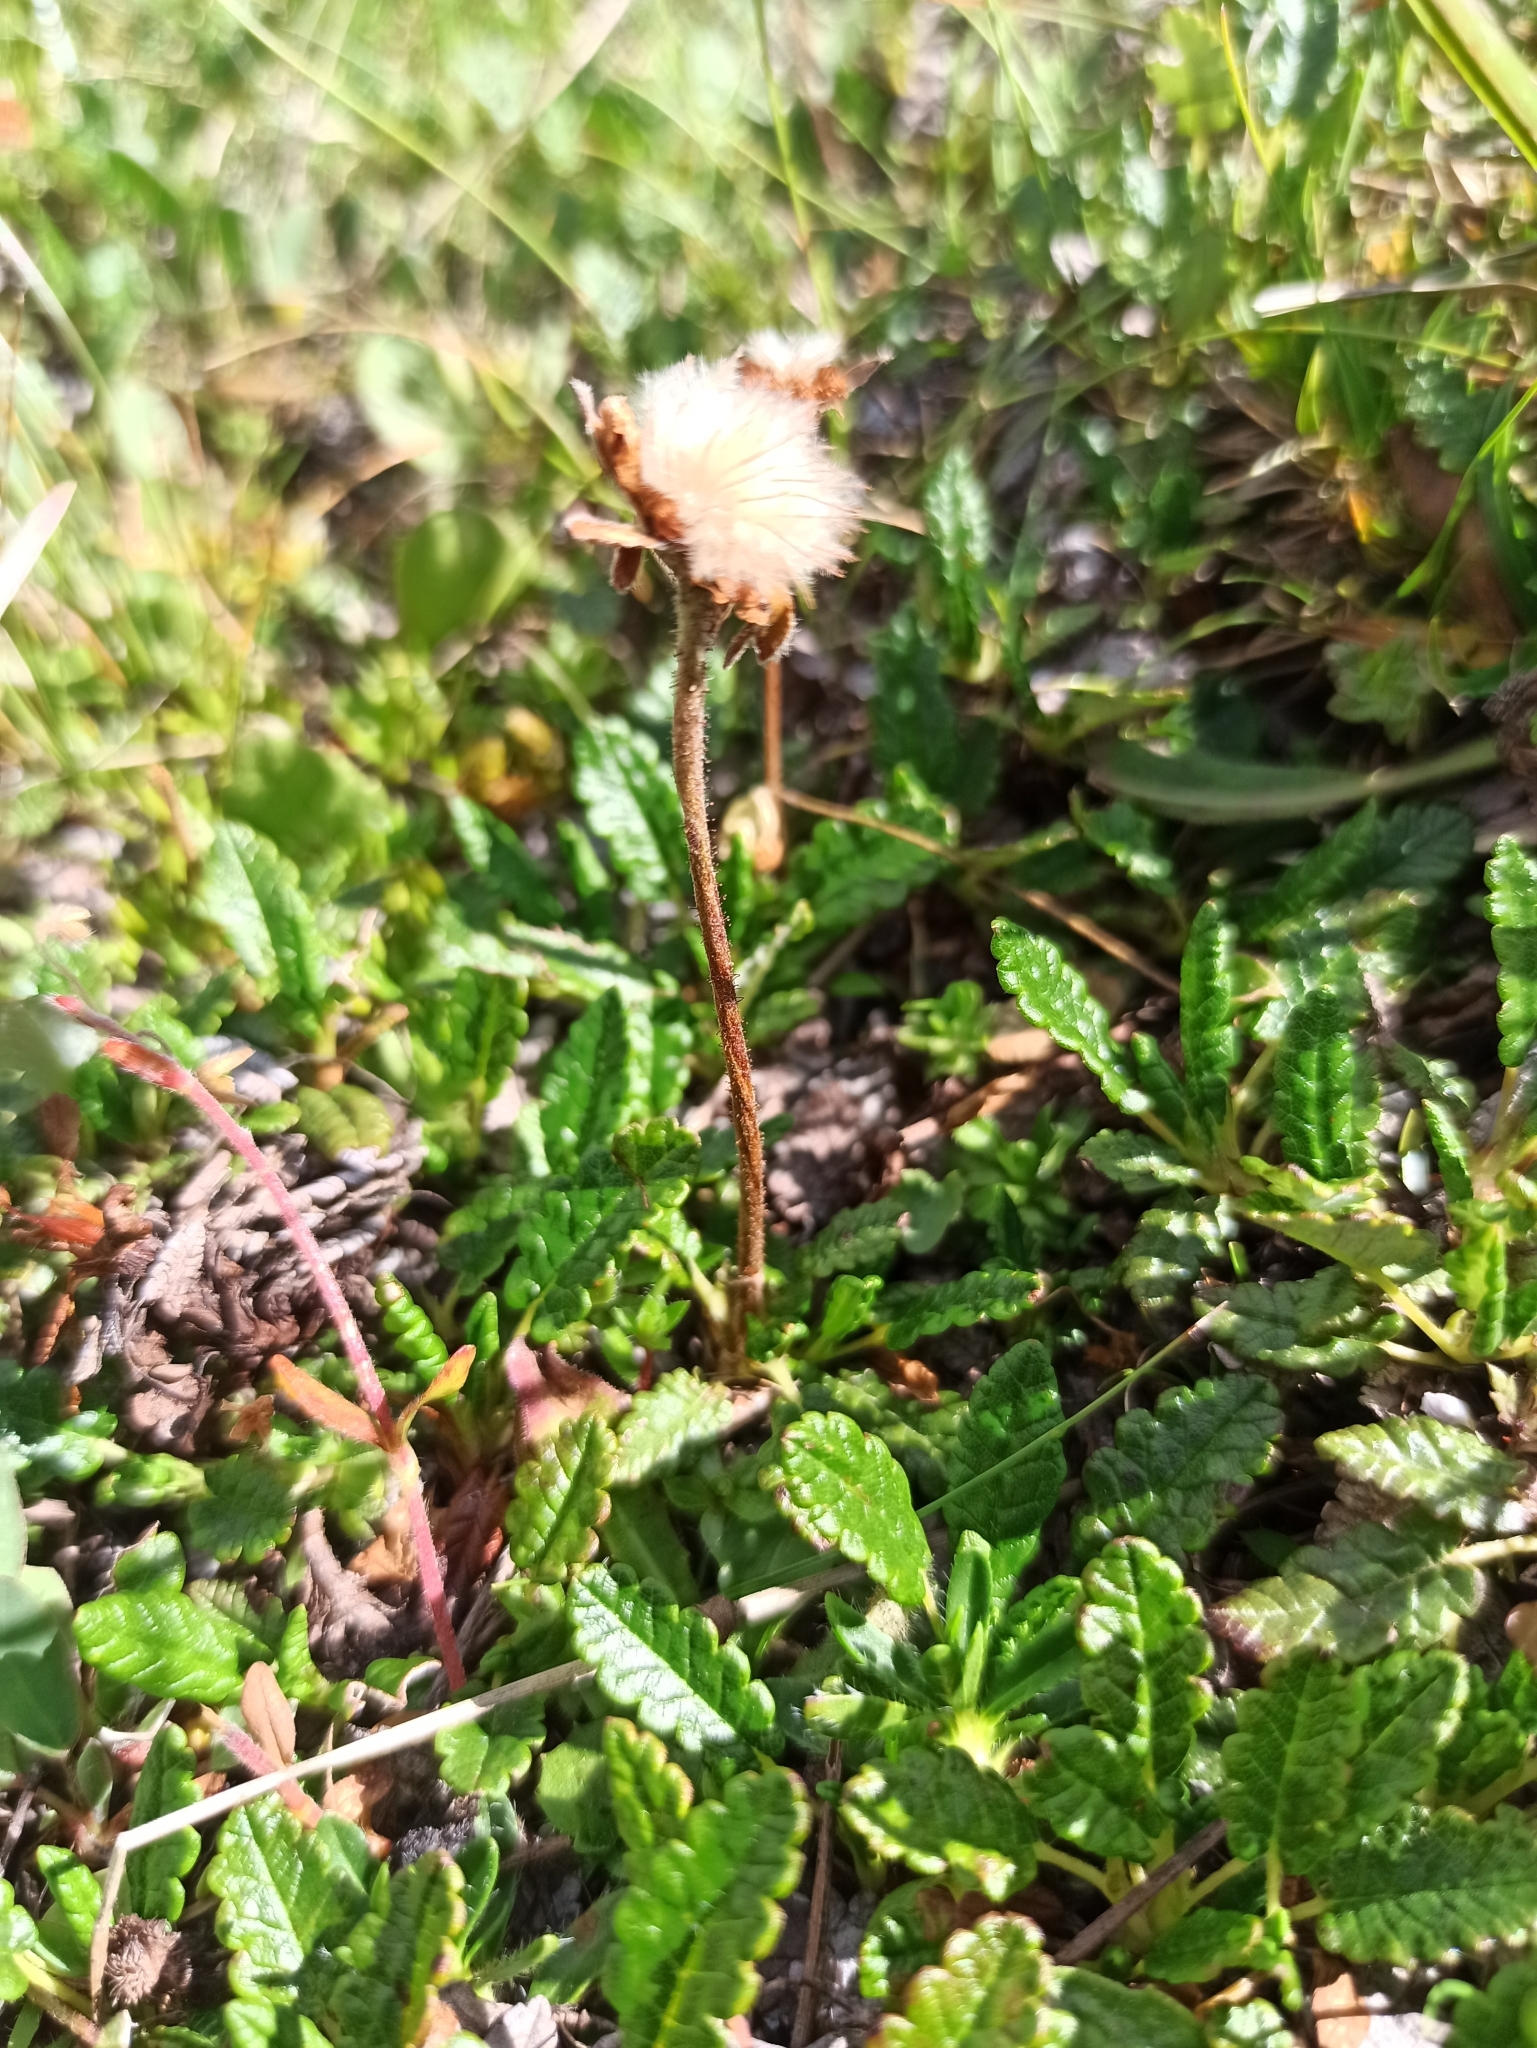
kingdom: Plantae
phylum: Tracheophyta
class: Magnoliopsida
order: Rosales
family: Rosaceae
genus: Dryas
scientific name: Dryas octopetala
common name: Eight-petal mountain-avens
